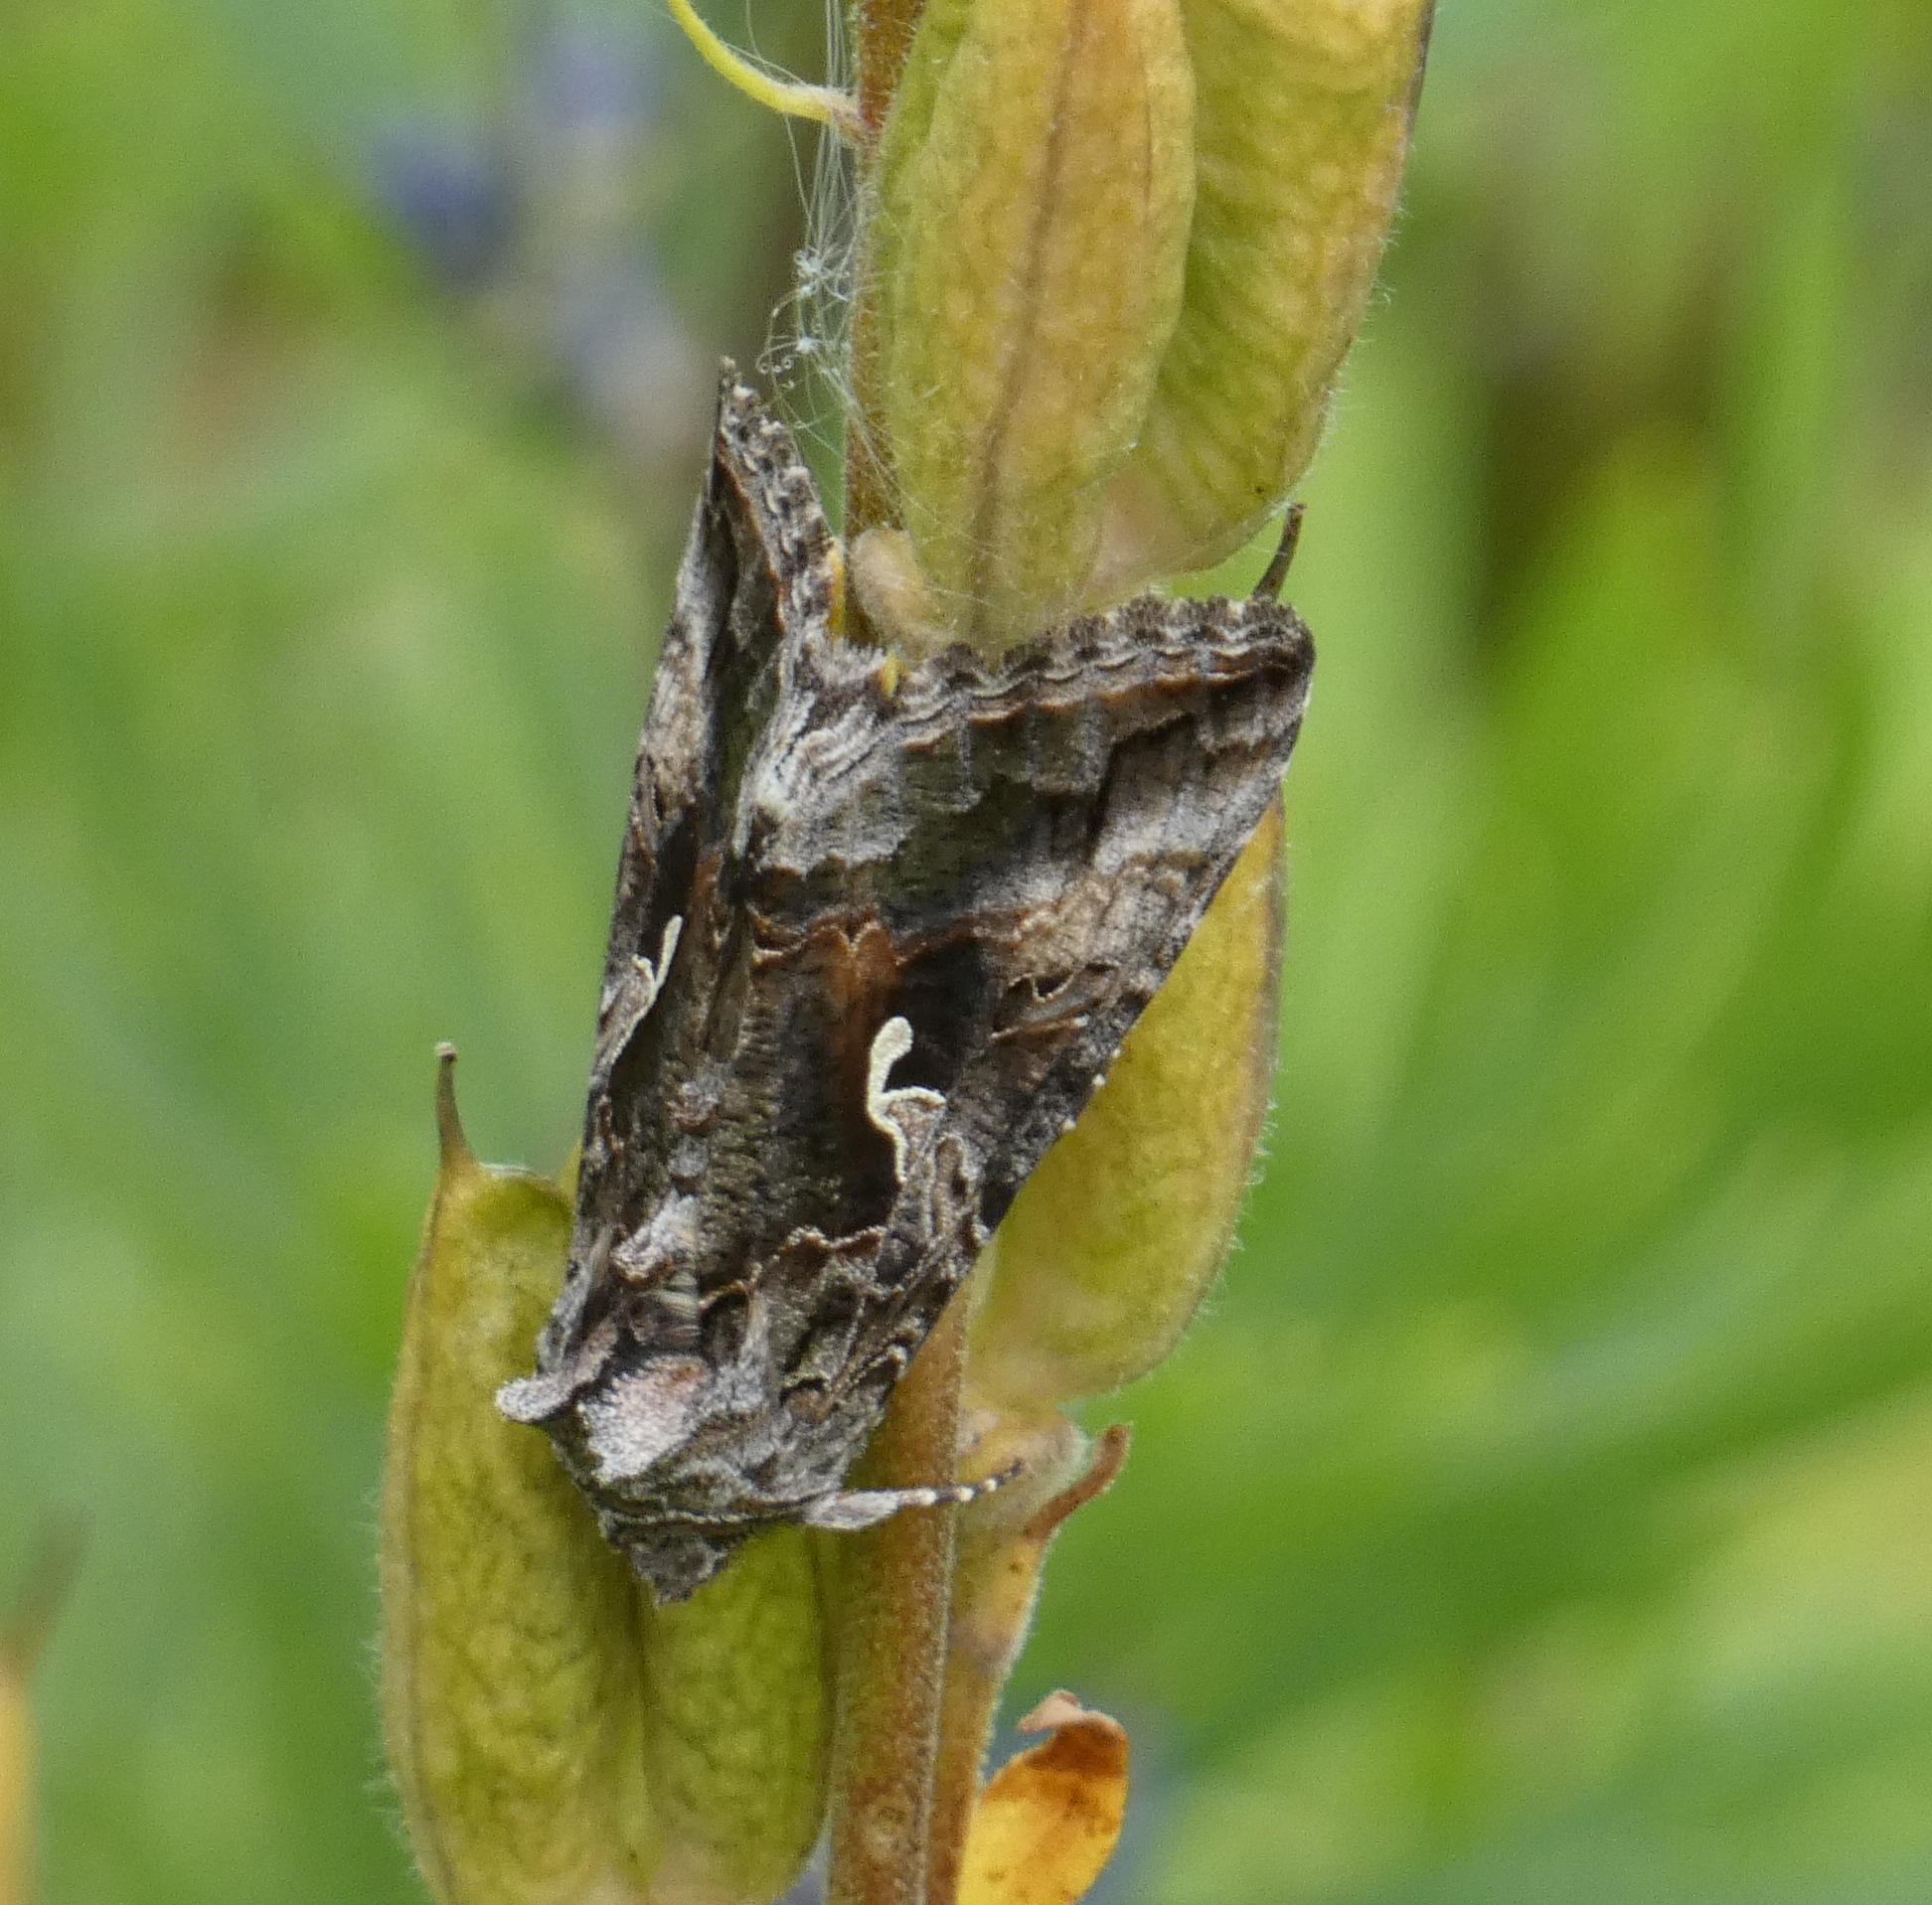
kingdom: Animalia
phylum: Arthropoda
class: Insecta
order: Lepidoptera
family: Noctuidae
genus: Autographa
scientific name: Autographa californica
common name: Alfalfa looper
